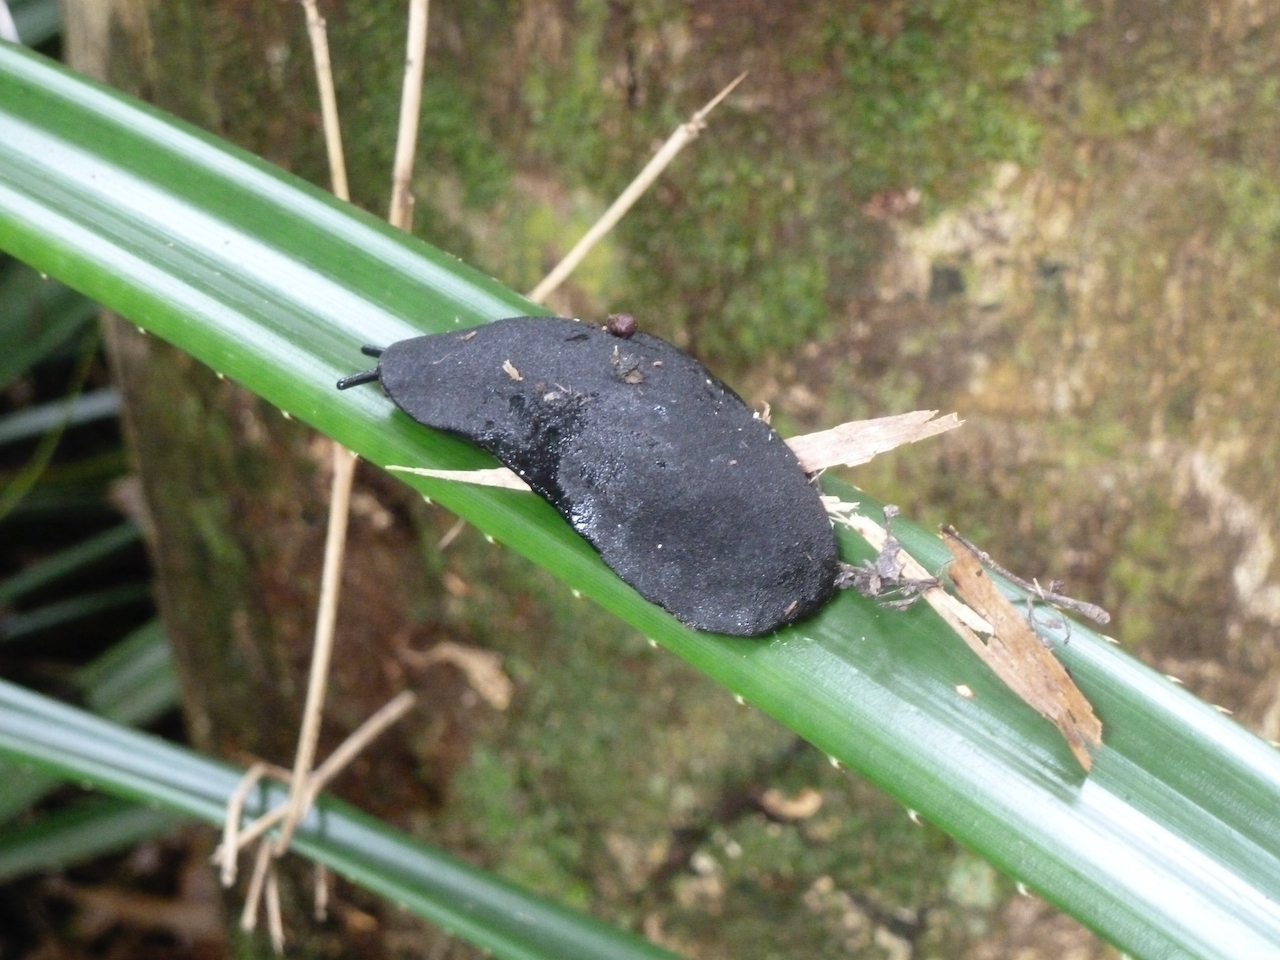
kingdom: Animalia
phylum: Mollusca
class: Gastropoda
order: Systellommatophora
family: Veronicellidae
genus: Phyllocaulis
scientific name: Phyllocaulis gayi
